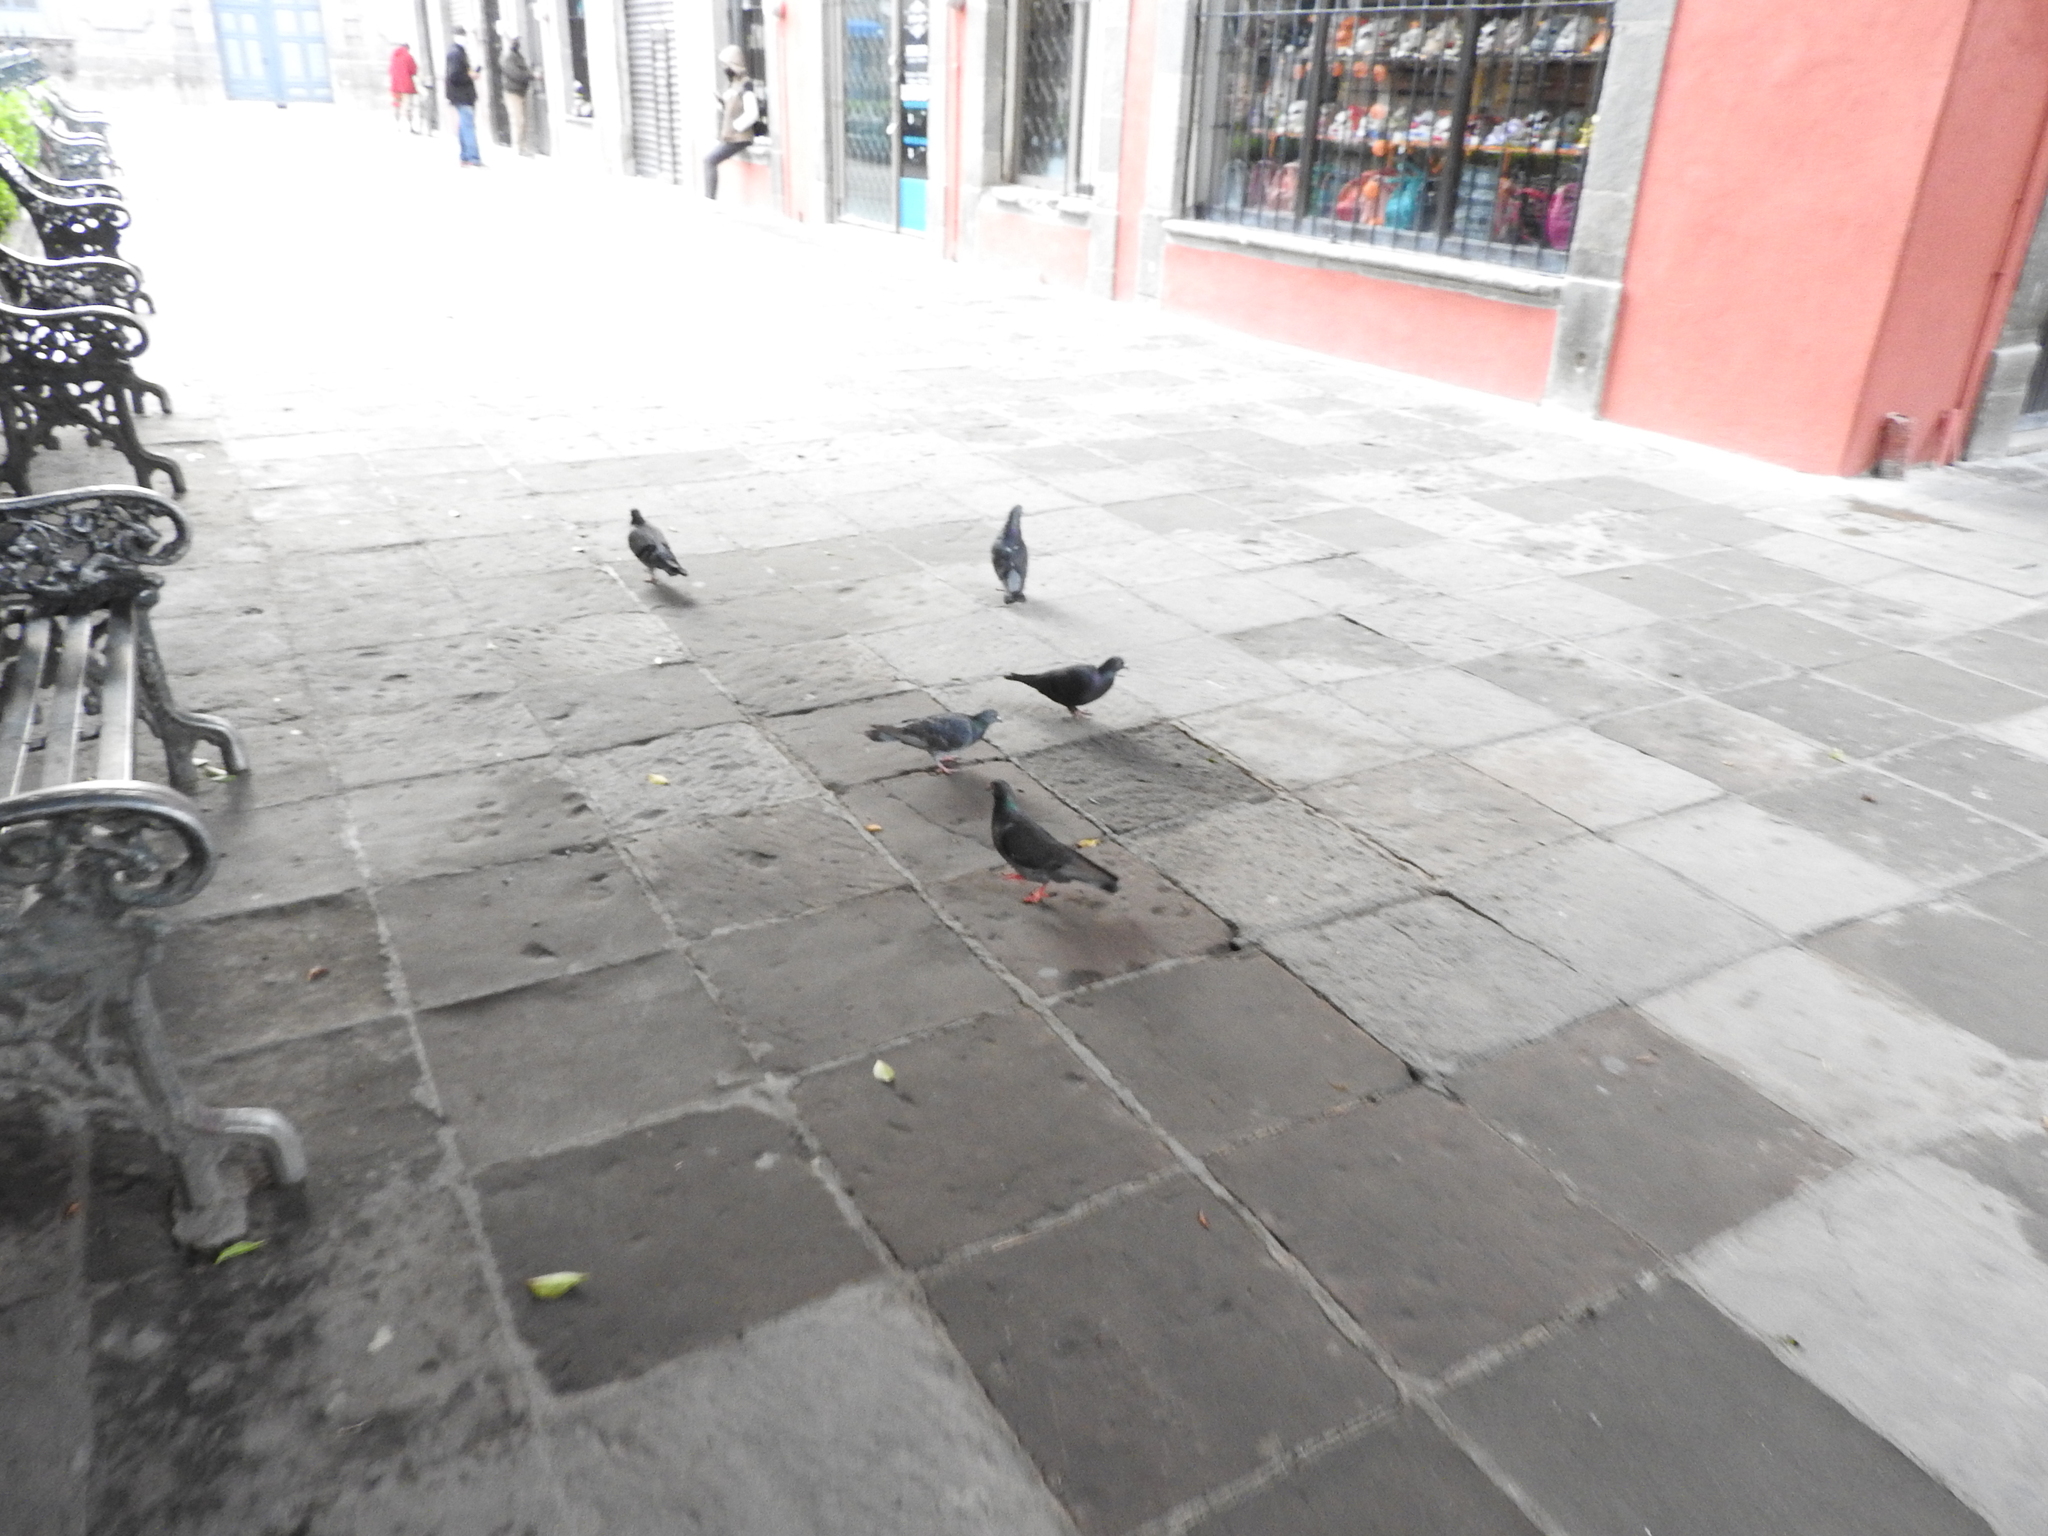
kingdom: Animalia
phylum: Chordata
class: Aves
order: Columbiformes
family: Columbidae
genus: Columba
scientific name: Columba livia
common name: Rock pigeon
